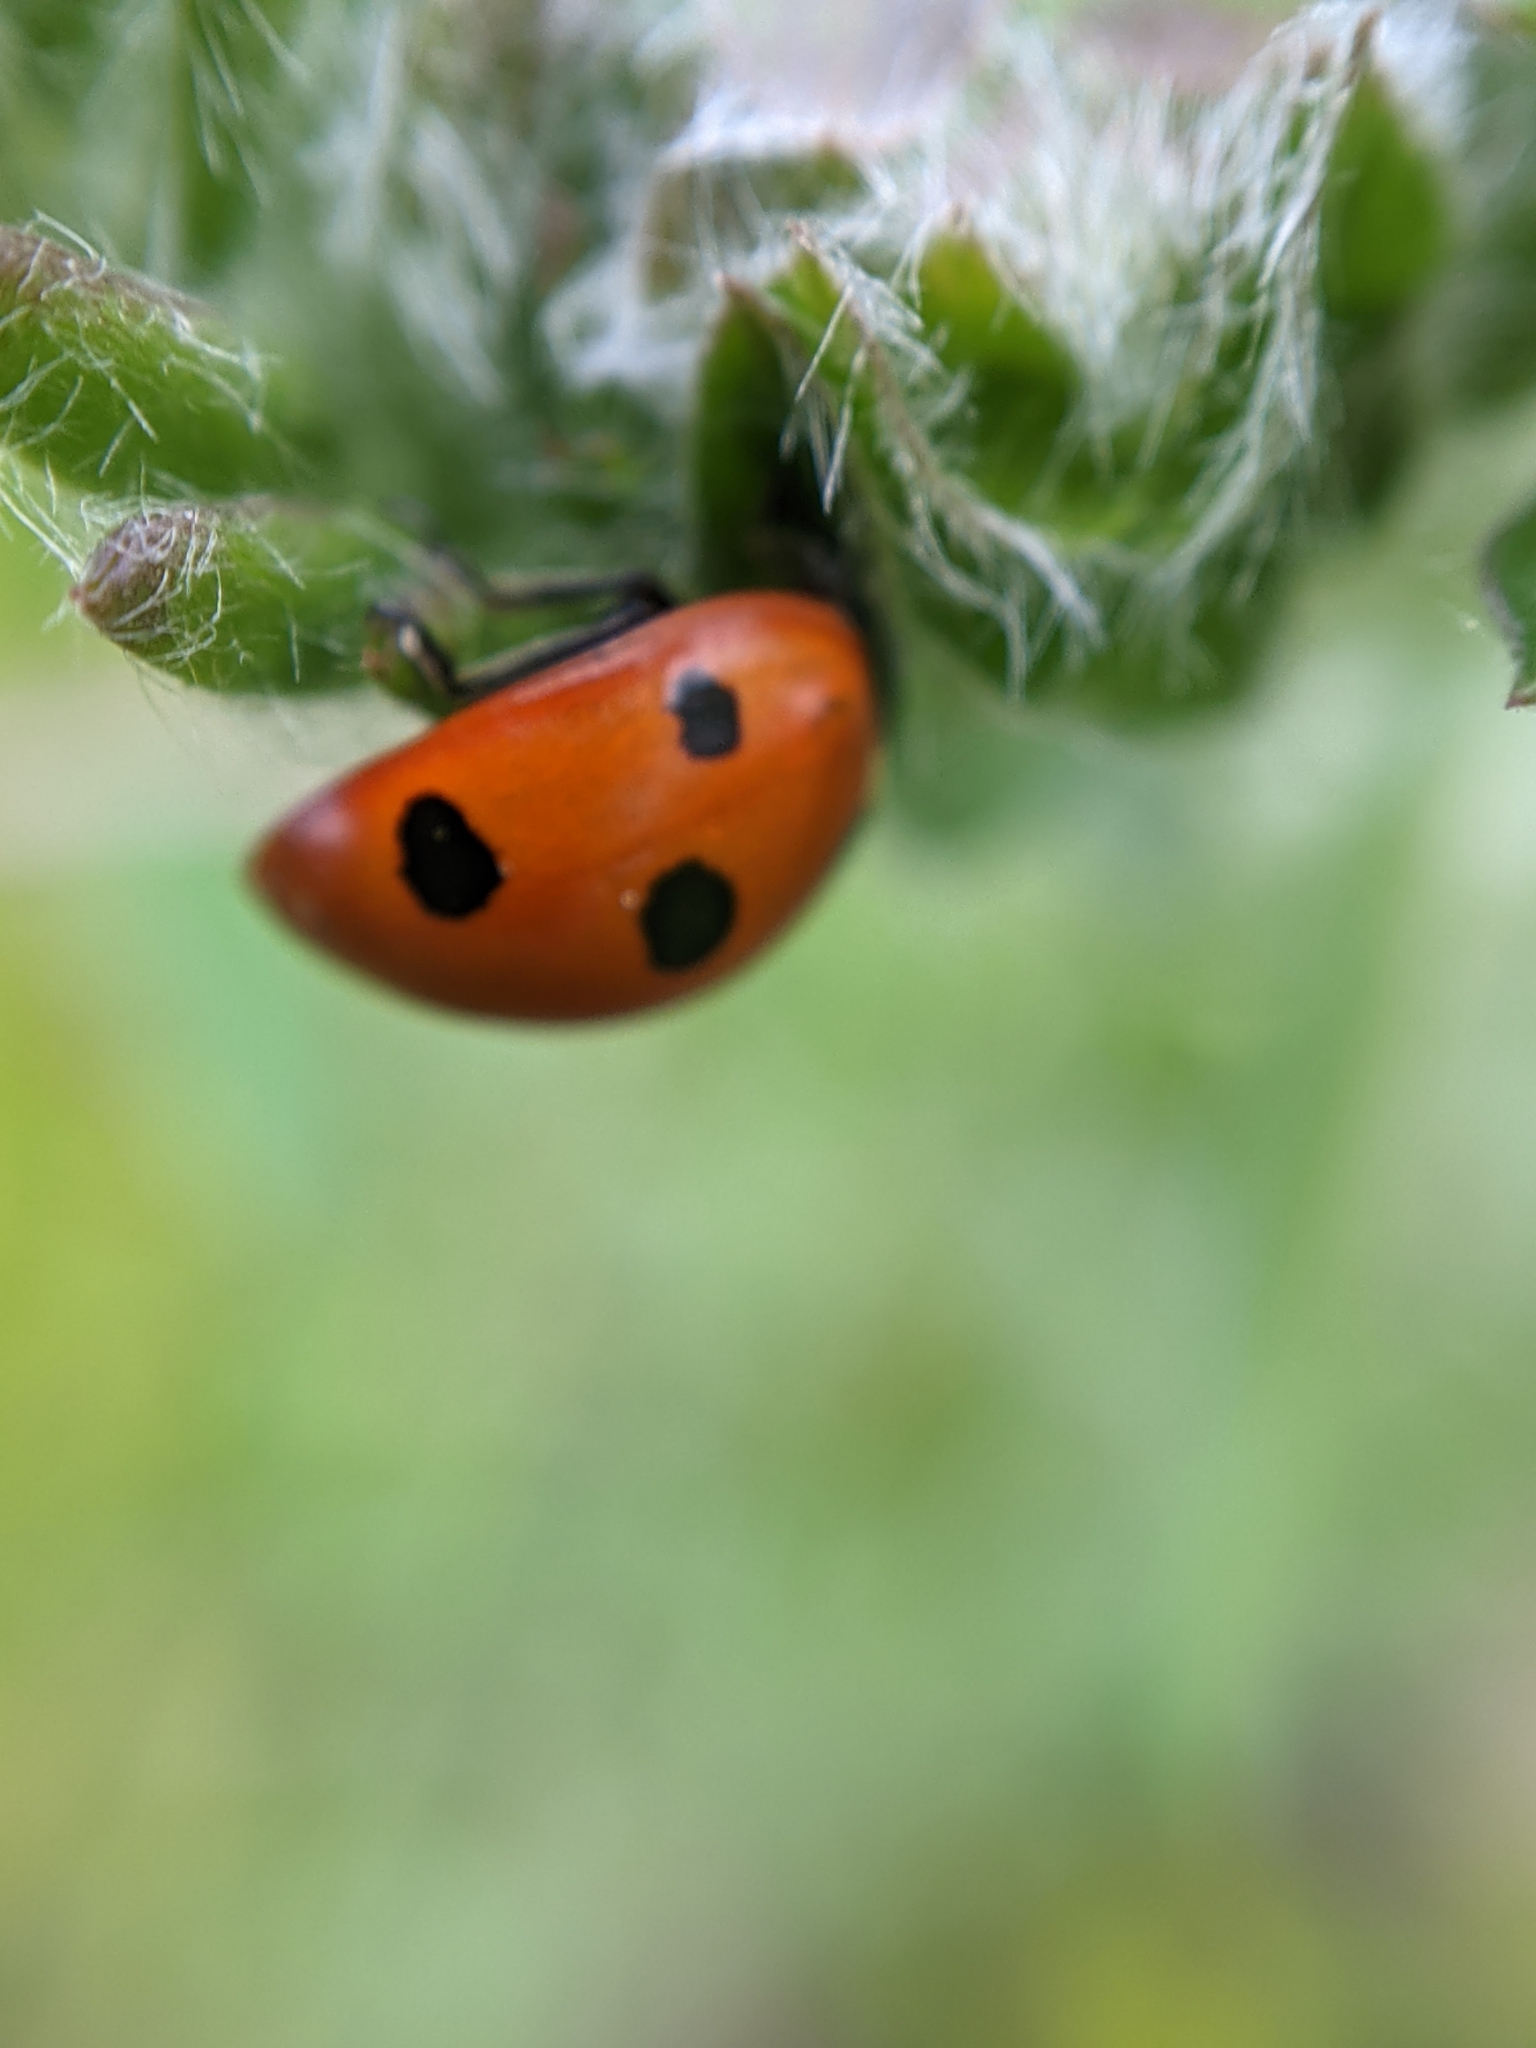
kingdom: Animalia
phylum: Arthropoda
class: Insecta
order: Coleoptera
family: Coccinellidae
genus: Coccinella
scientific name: Coccinella septempunctata
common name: Sevenspotted lady beetle
